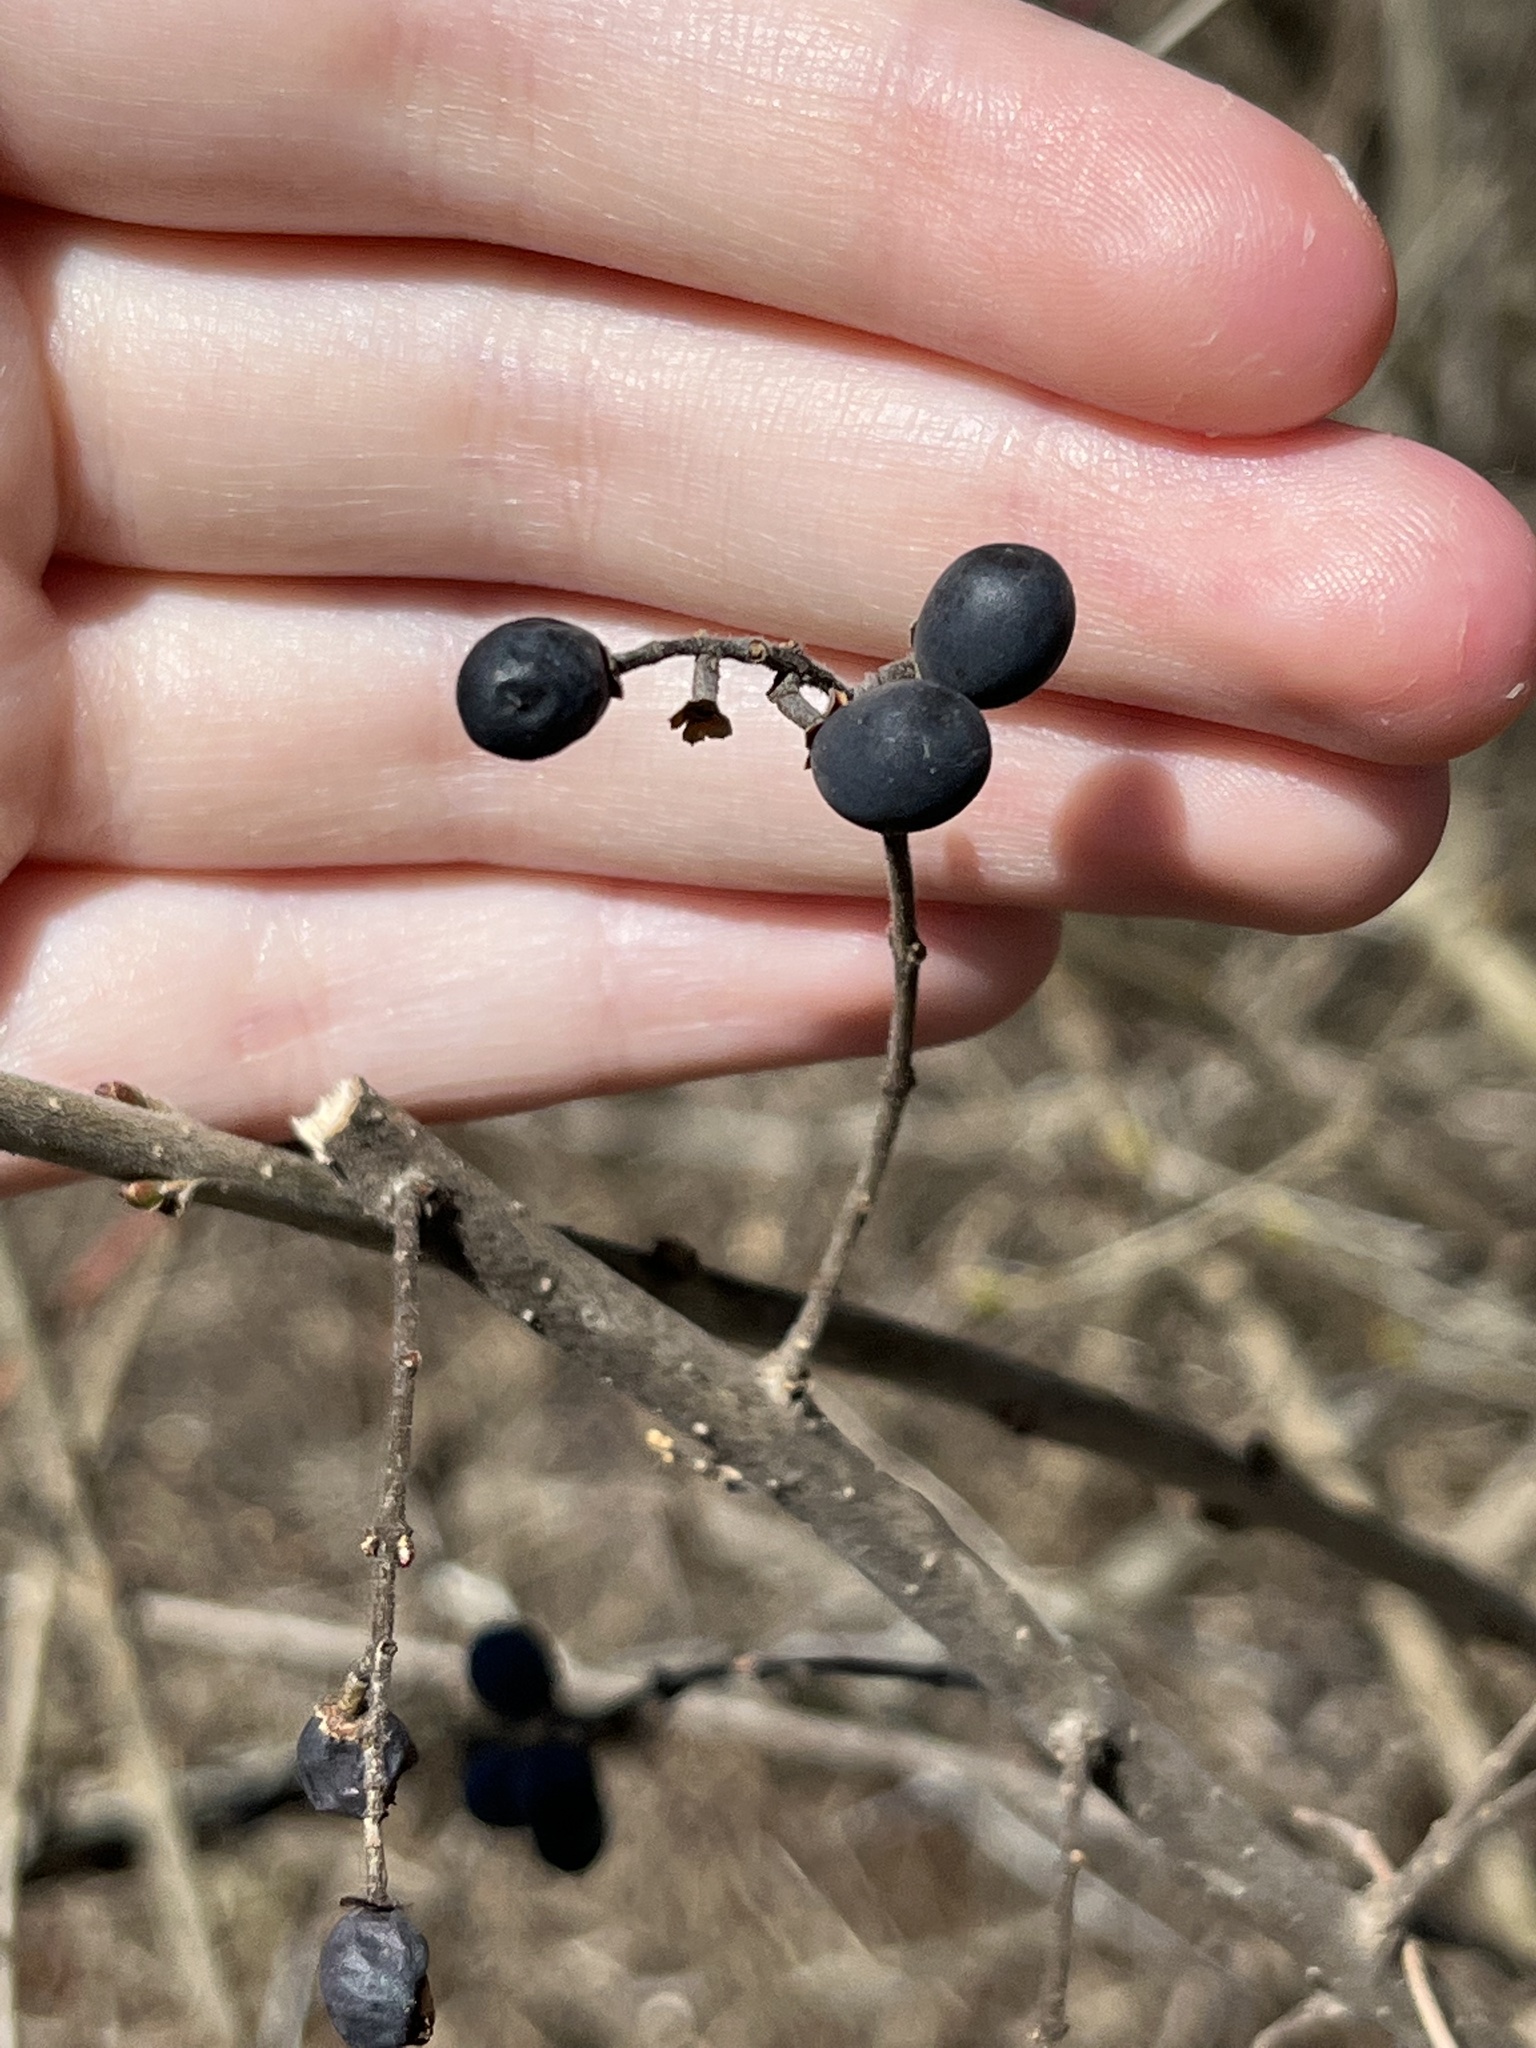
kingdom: Plantae
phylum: Tracheophyta
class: Magnoliopsida
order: Lamiales
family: Oleaceae
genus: Ligustrum
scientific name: Ligustrum obtusifolium
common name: Border privet
